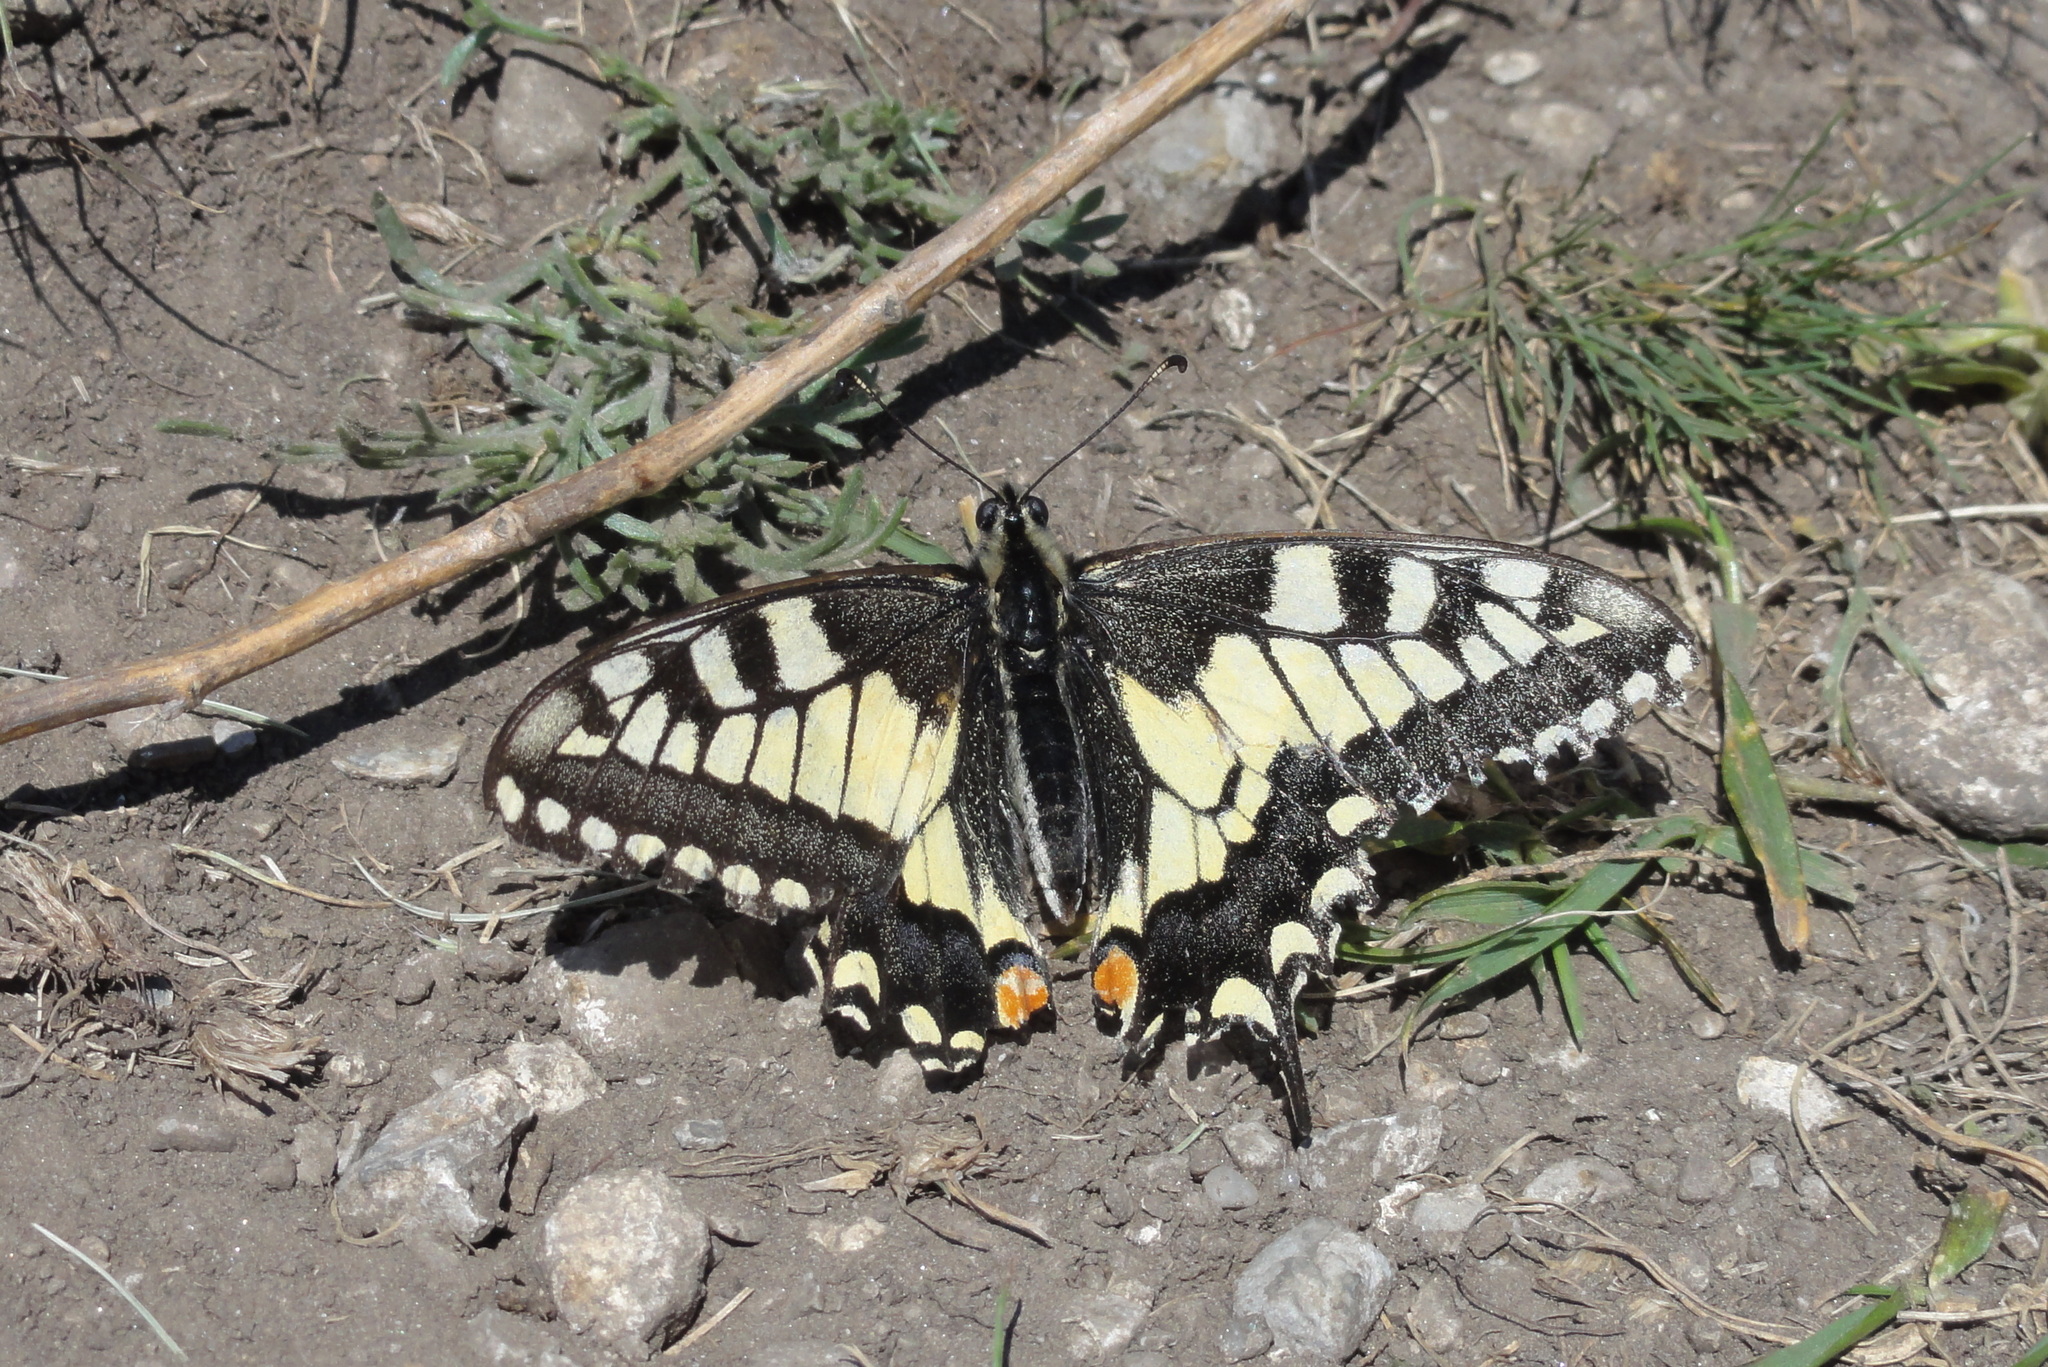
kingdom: Animalia
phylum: Arthropoda
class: Insecta
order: Lepidoptera
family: Papilionidae
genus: Papilio
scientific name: Papilio machaon
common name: Swallowtail
